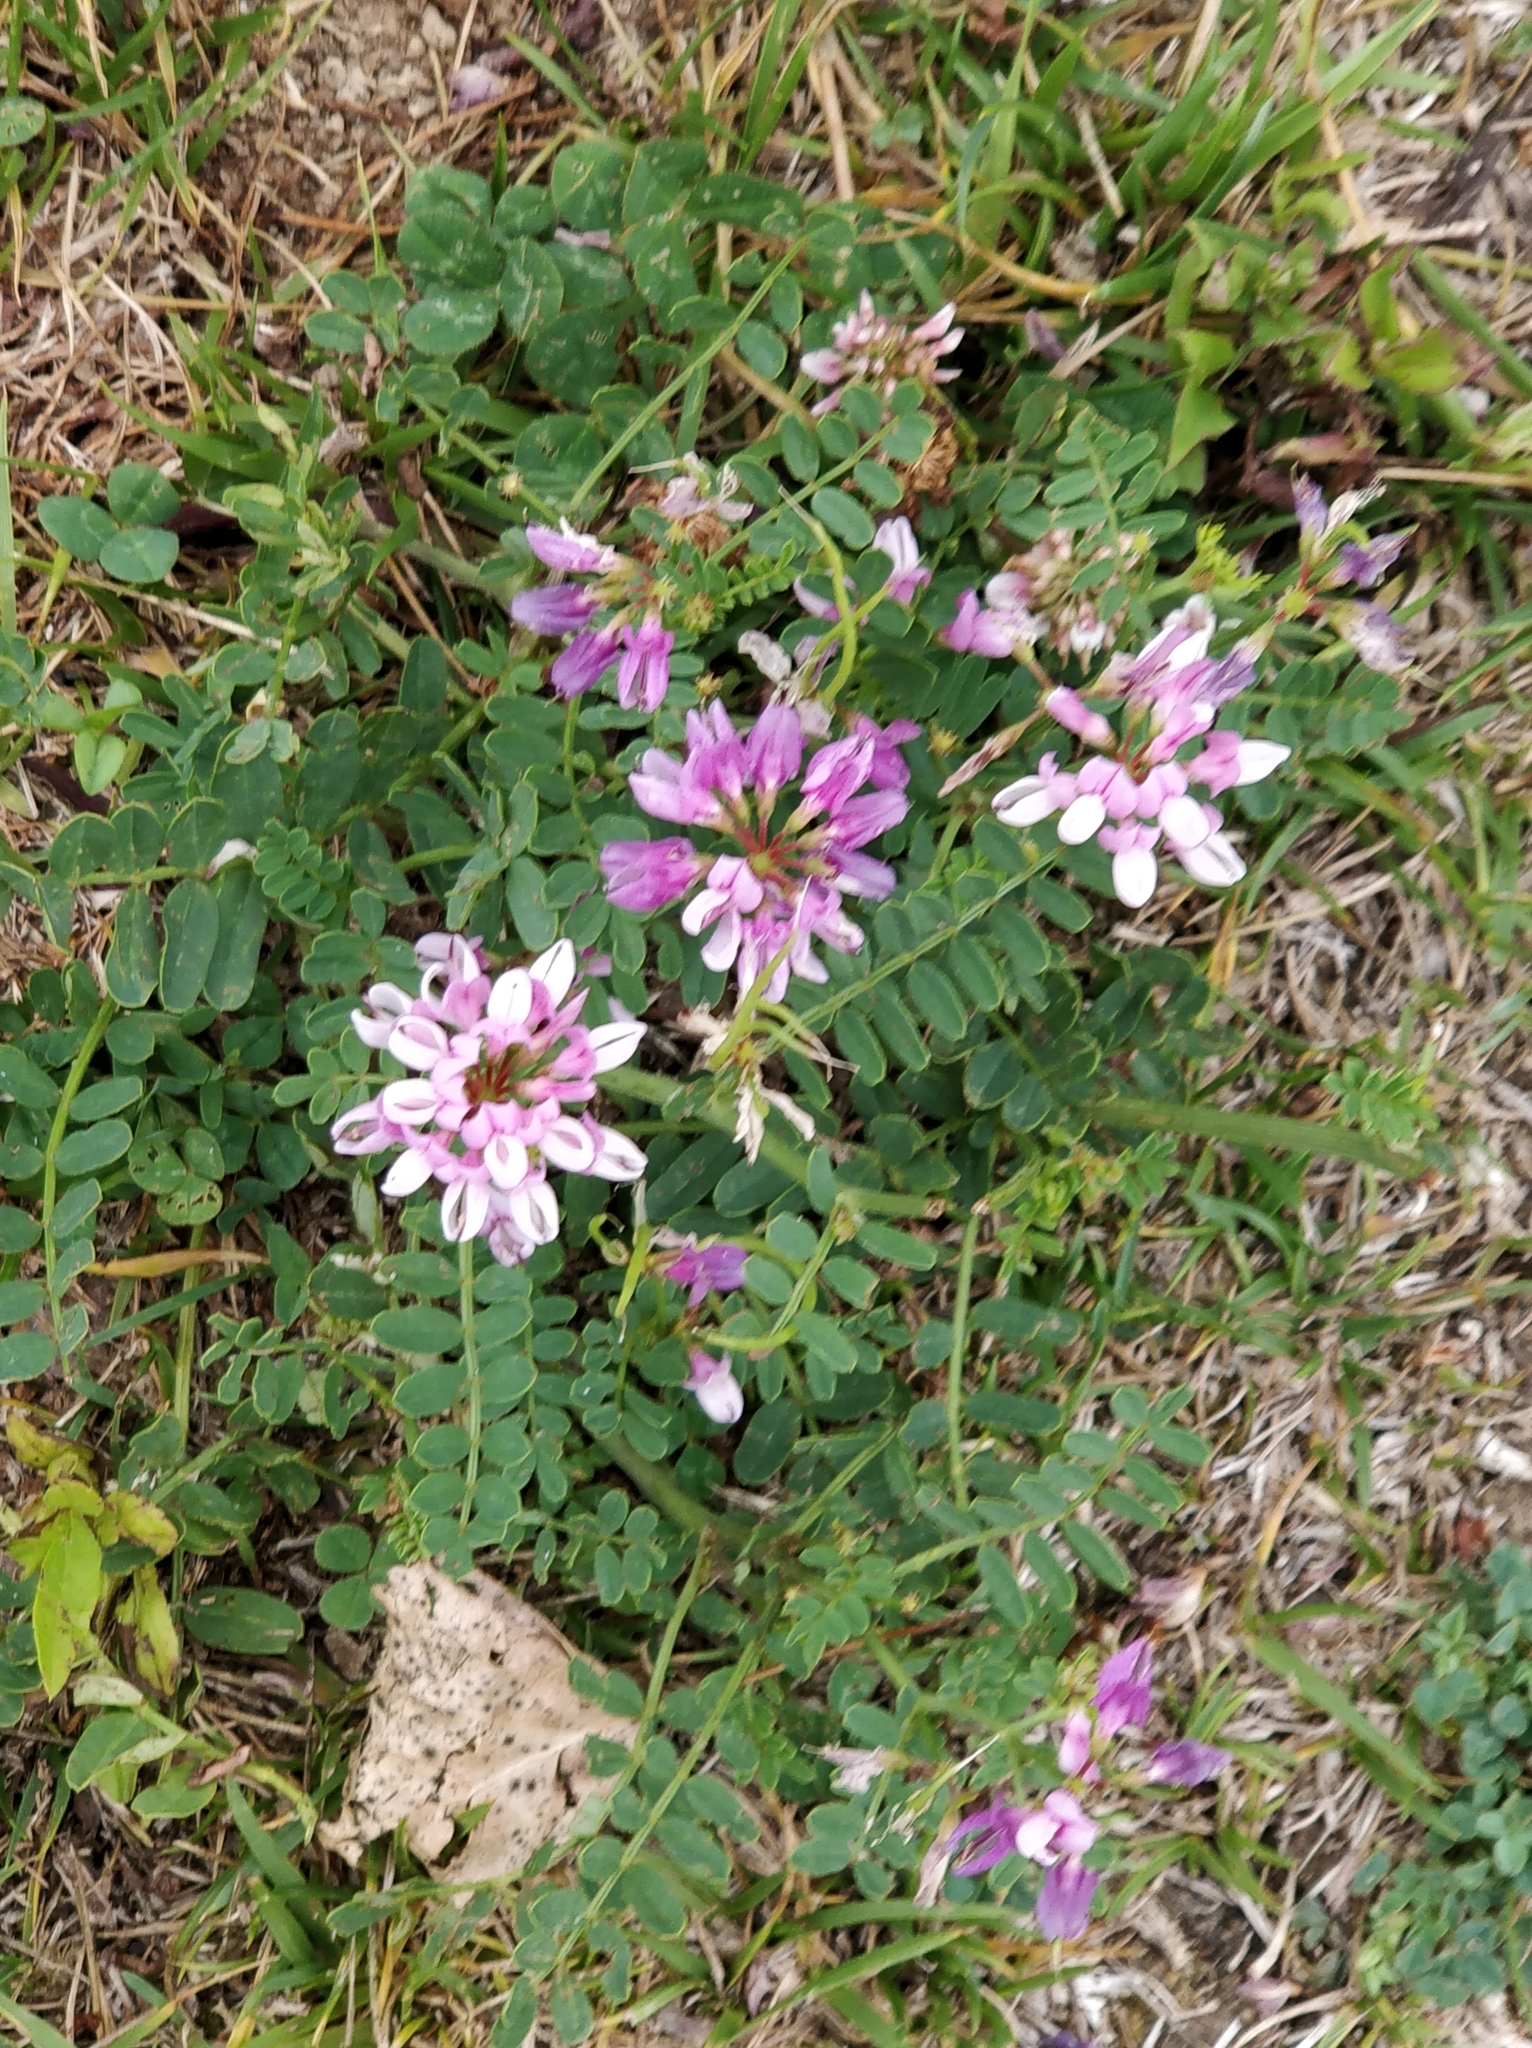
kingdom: Plantae
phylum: Tracheophyta
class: Magnoliopsida
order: Fabales
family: Fabaceae
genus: Coronilla
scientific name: Coronilla varia
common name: Crownvetch
